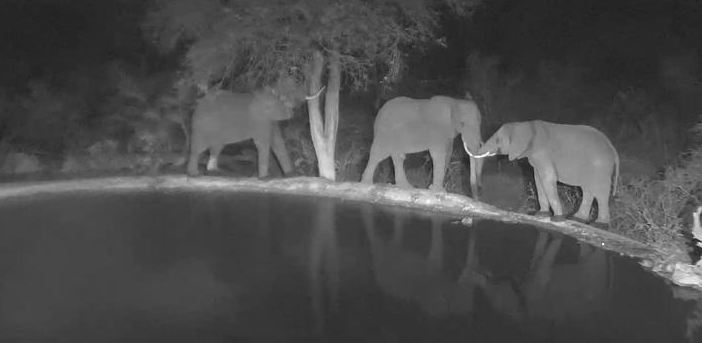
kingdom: Animalia
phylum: Chordata
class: Mammalia
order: Proboscidea
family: Elephantidae
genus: Loxodonta
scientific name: Loxodonta africana
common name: African elephant
